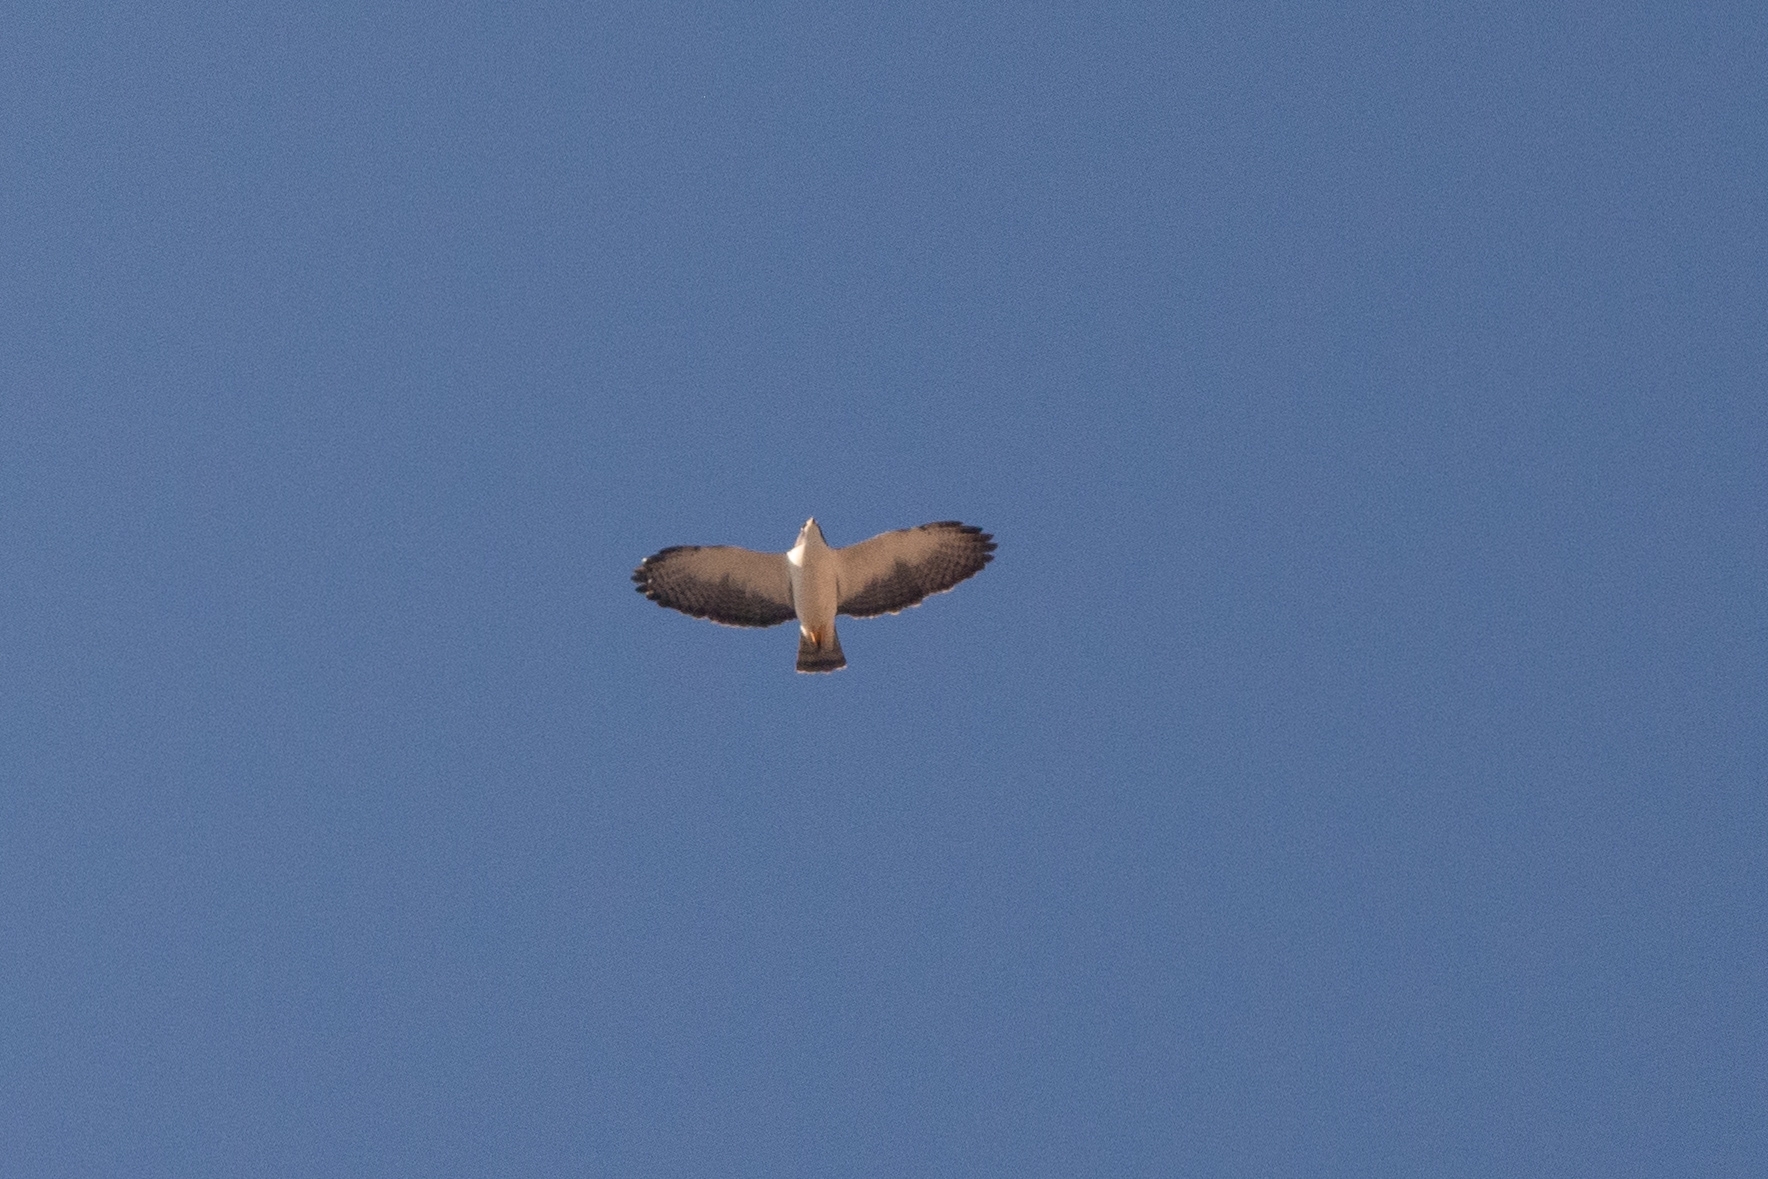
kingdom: Animalia
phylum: Chordata
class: Aves
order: Accipitriformes
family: Accipitridae
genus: Buteo
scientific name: Buteo brachyurus
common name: Short-tailed hawk
